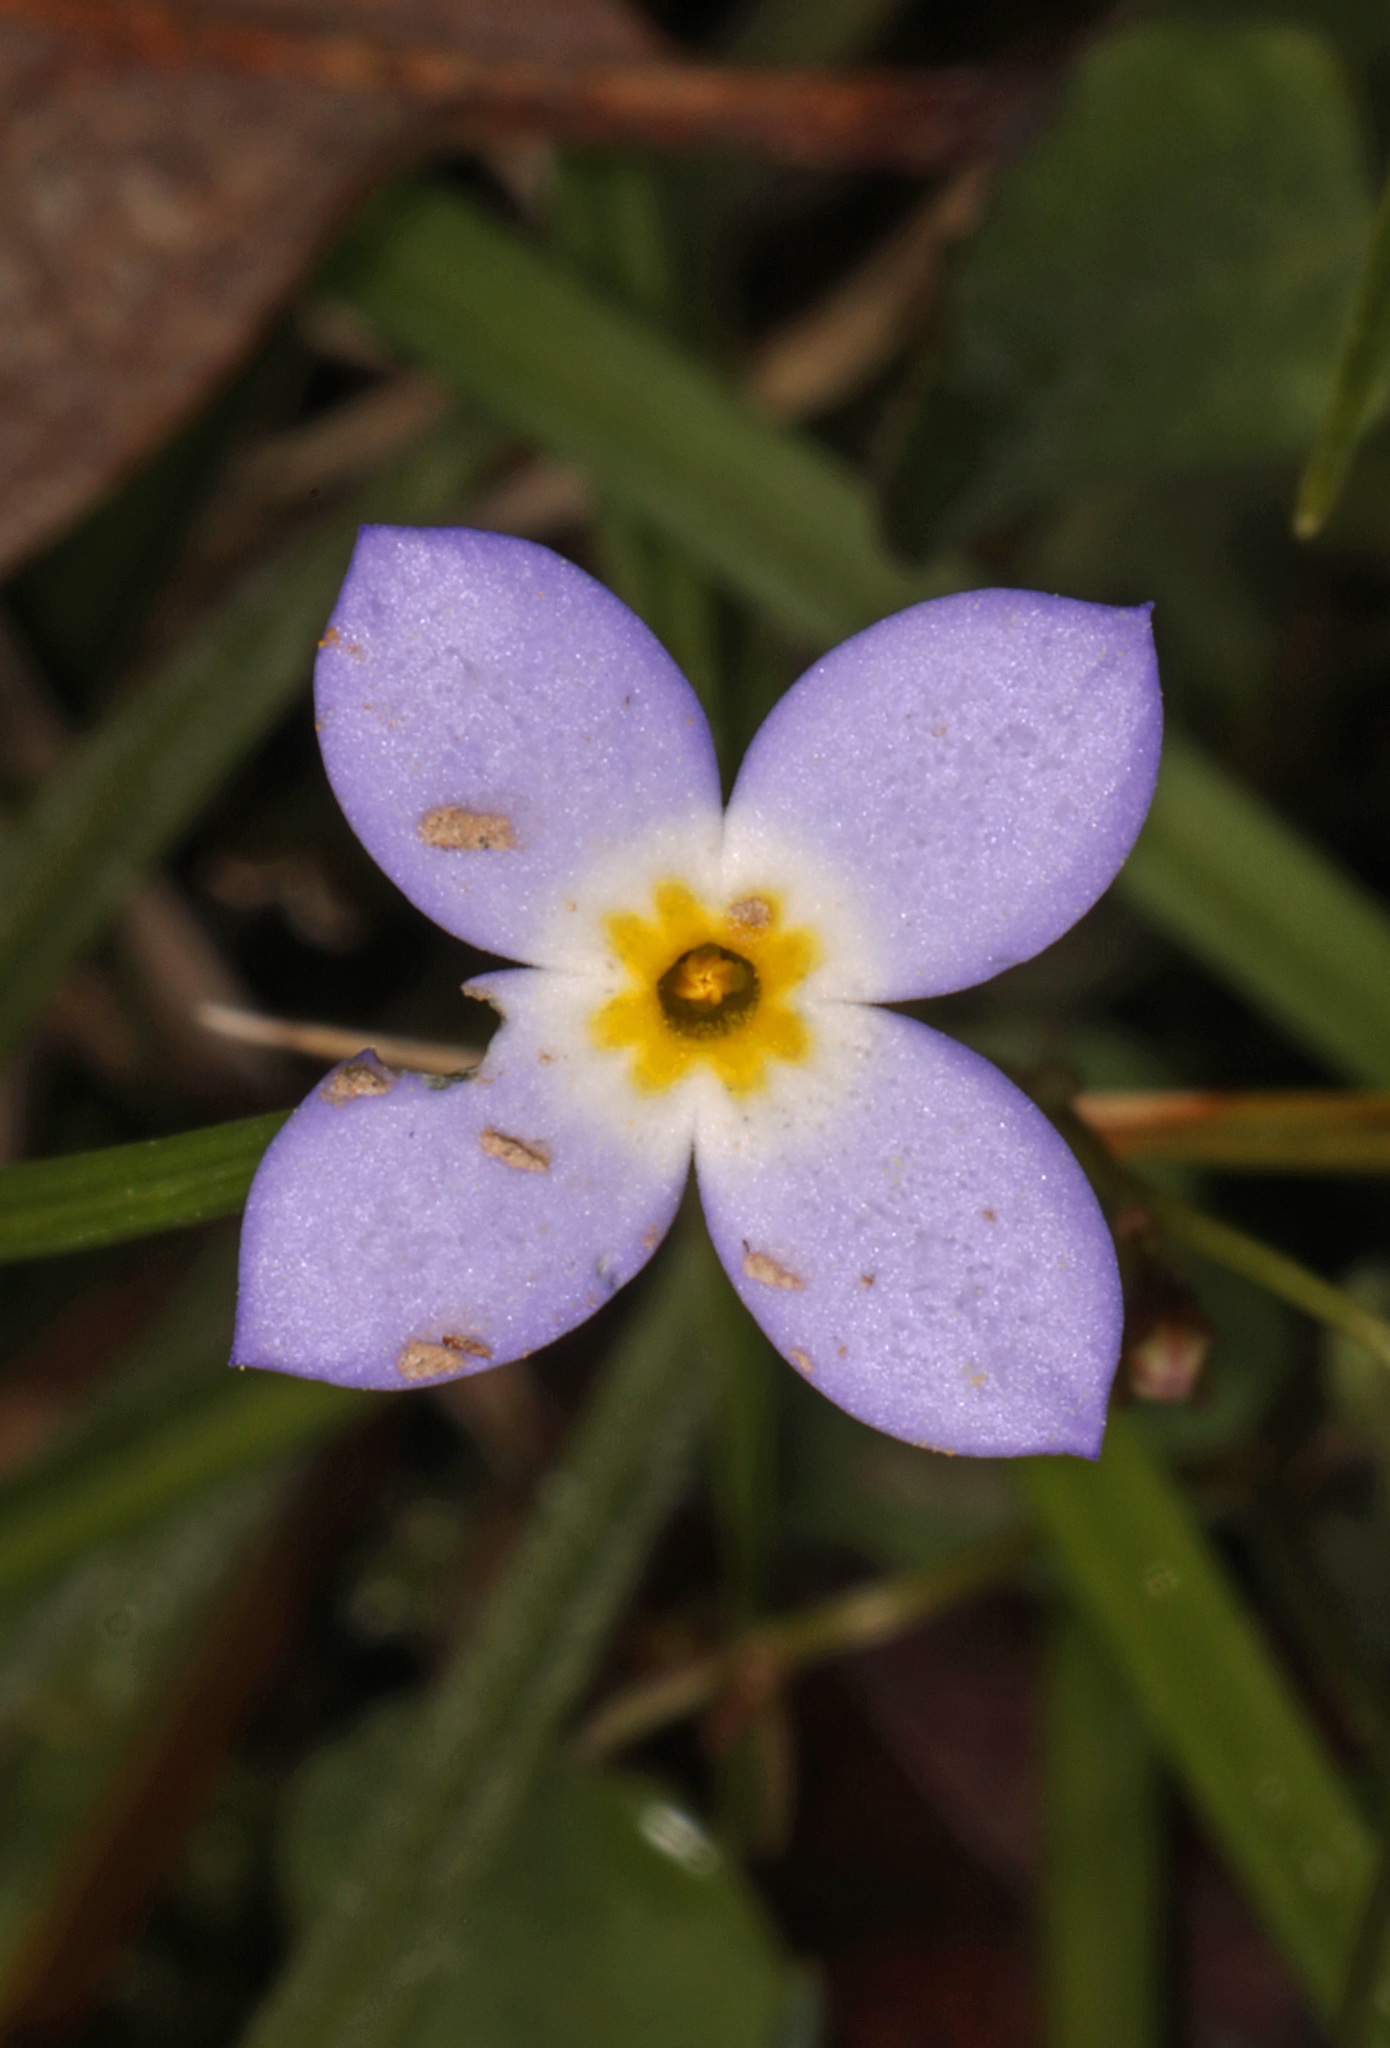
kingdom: Plantae
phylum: Tracheophyta
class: Magnoliopsida
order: Gentianales
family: Rubiaceae
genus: Houstonia
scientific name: Houstonia caerulea
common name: Bluets
